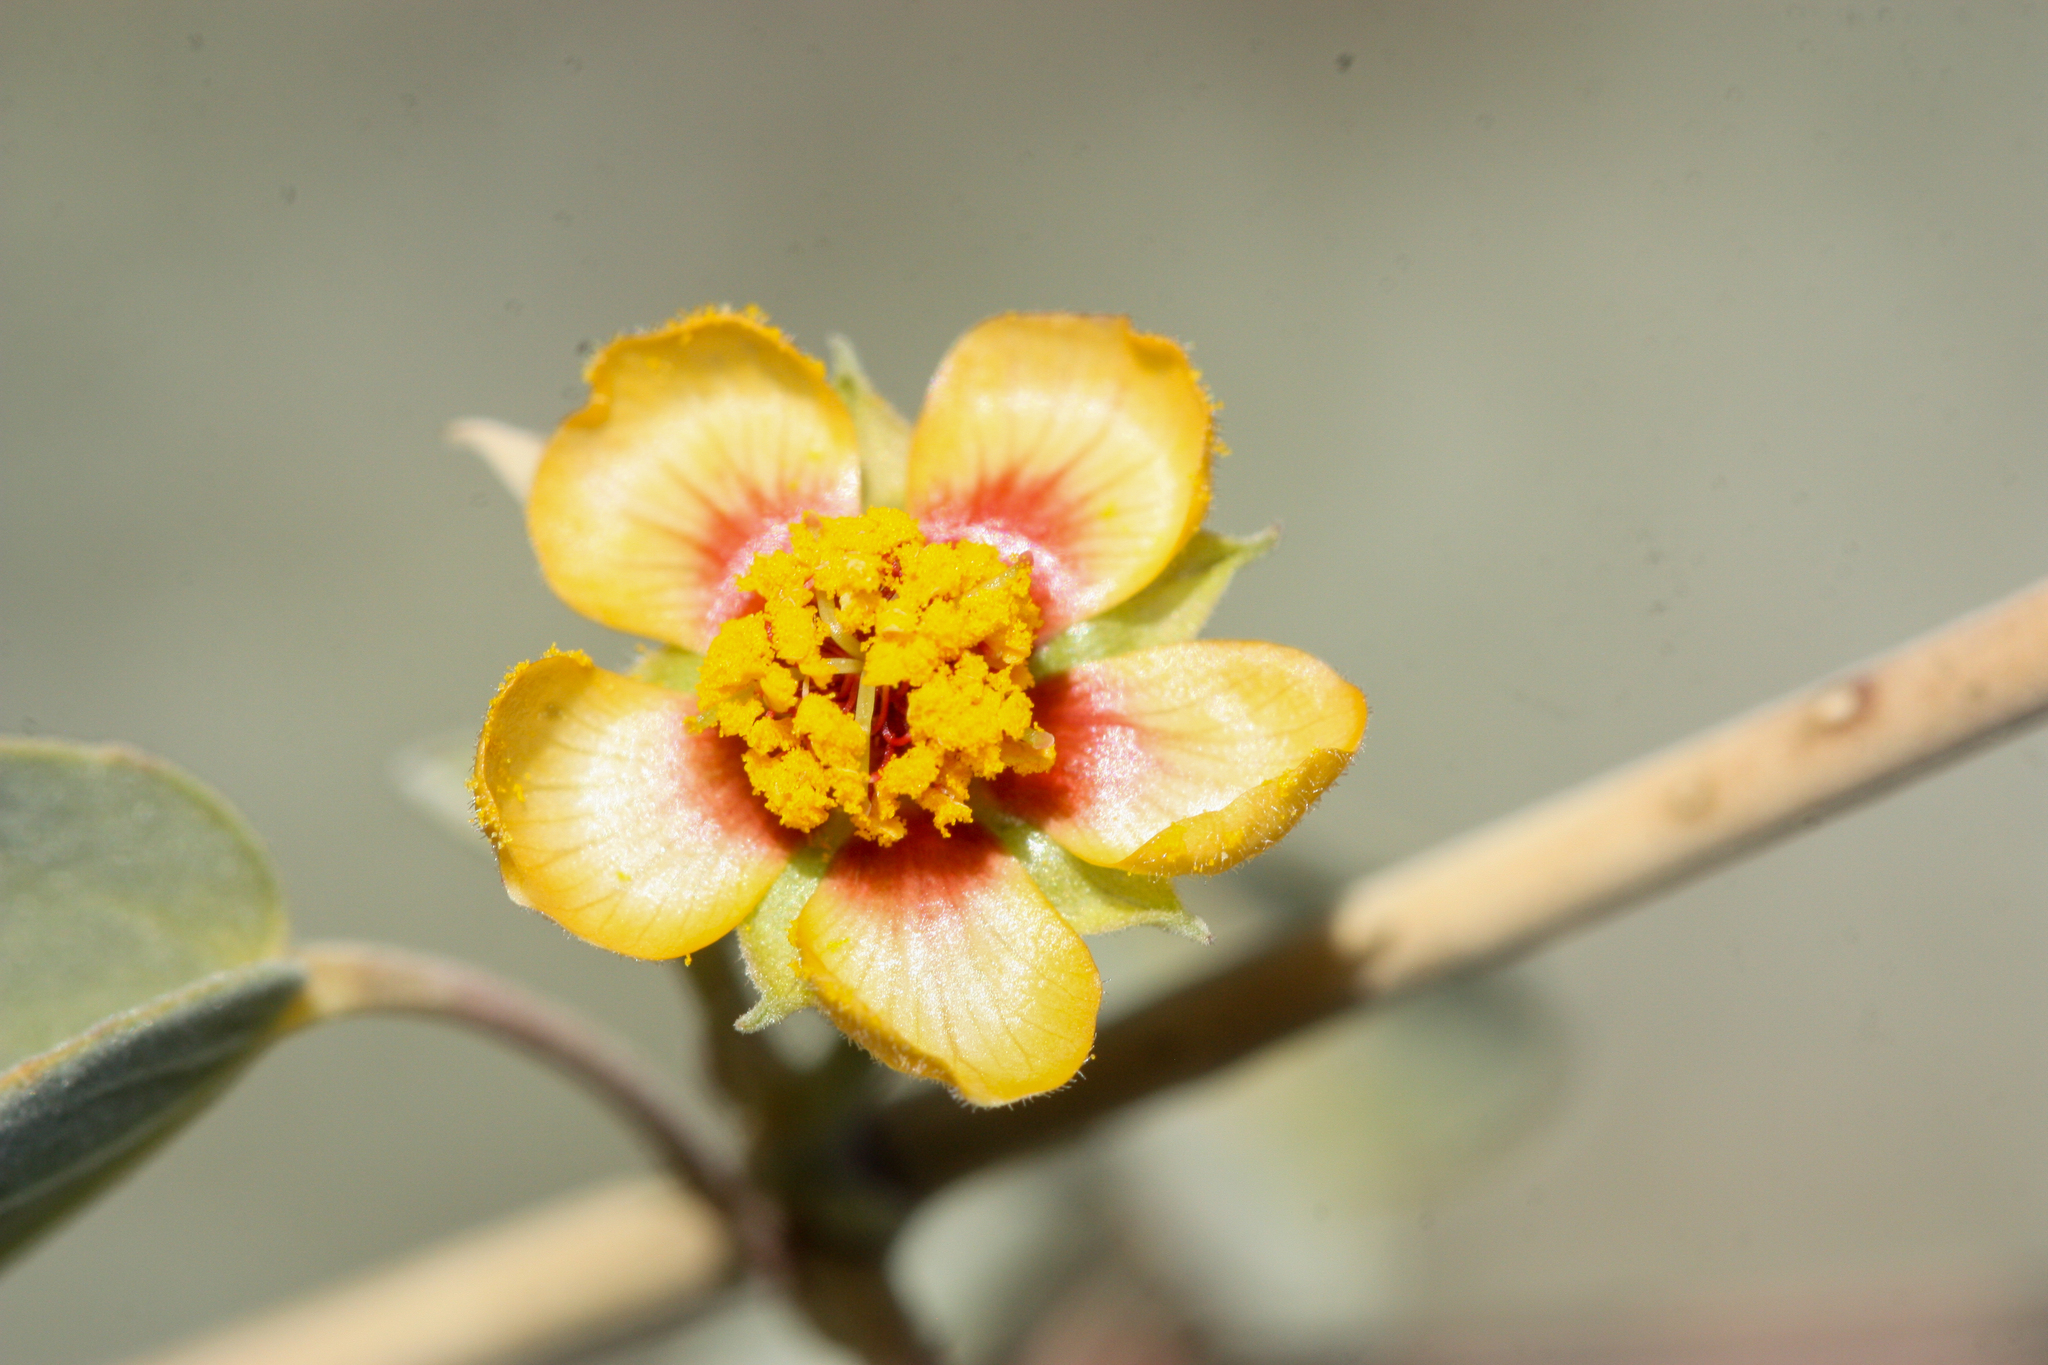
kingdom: Plantae
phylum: Tracheophyta
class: Magnoliopsida
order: Malvales
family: Malvaceae
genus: Abutilon
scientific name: Abutilon incanum
